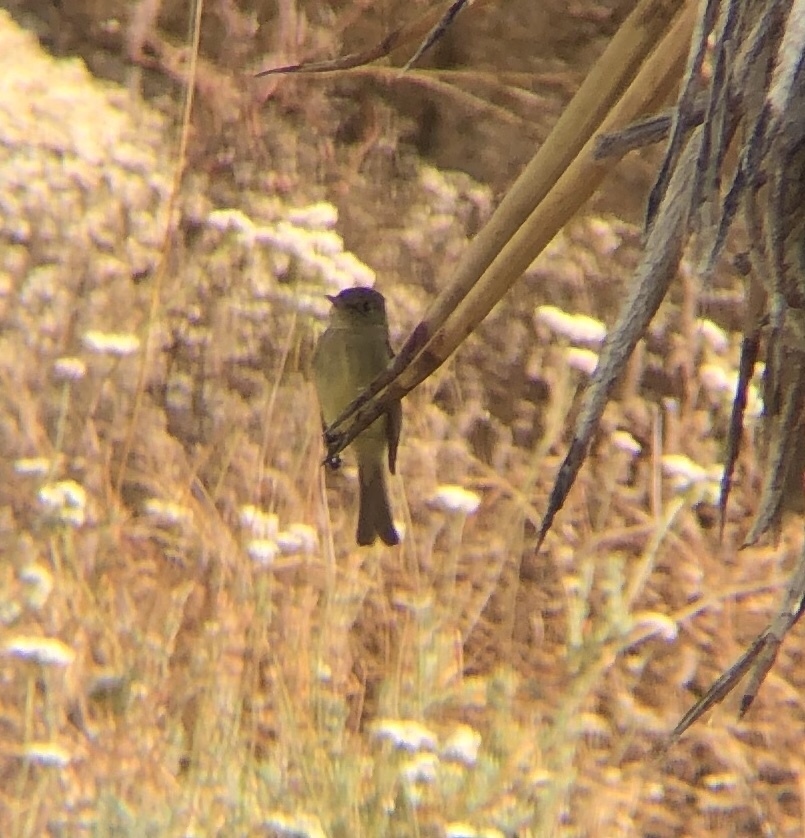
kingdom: Animalia
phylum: Chordata
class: Aves
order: Passeriformes
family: Tyrannidae
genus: Empidonax
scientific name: Empidonax difficilis
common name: Pacific-slope flycatcher
